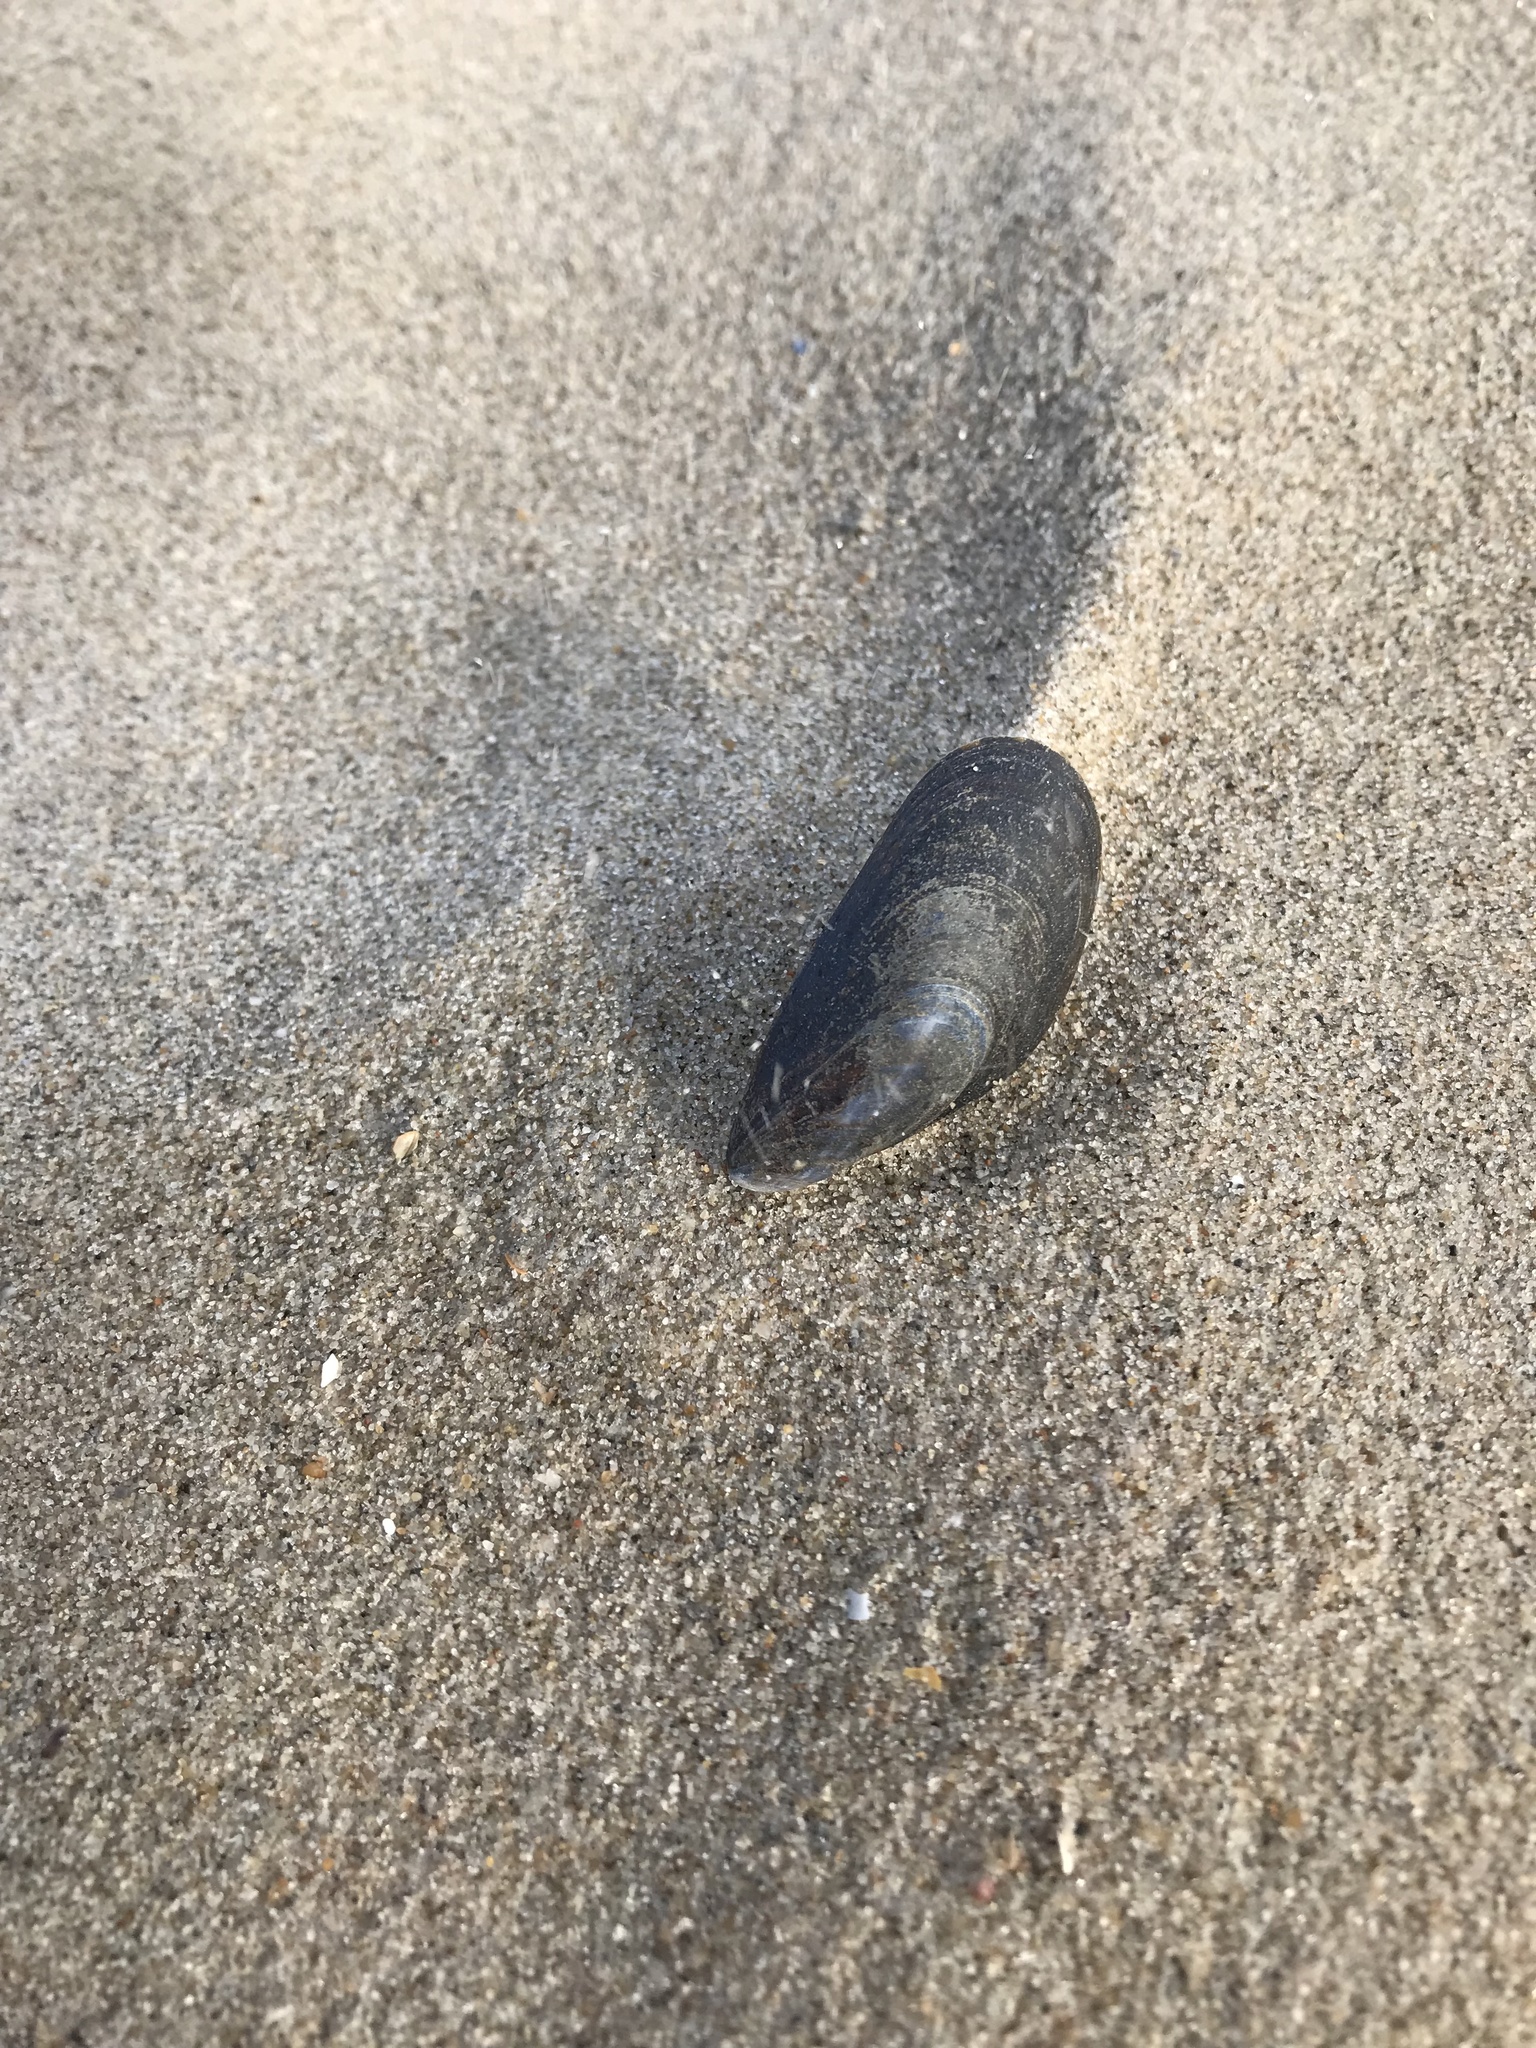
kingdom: Animalia
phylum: Mollusca
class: Bivalvia
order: Mytilida
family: Mytilidae
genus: Mytilus
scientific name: Mytilus edulis
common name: Blue mussel
